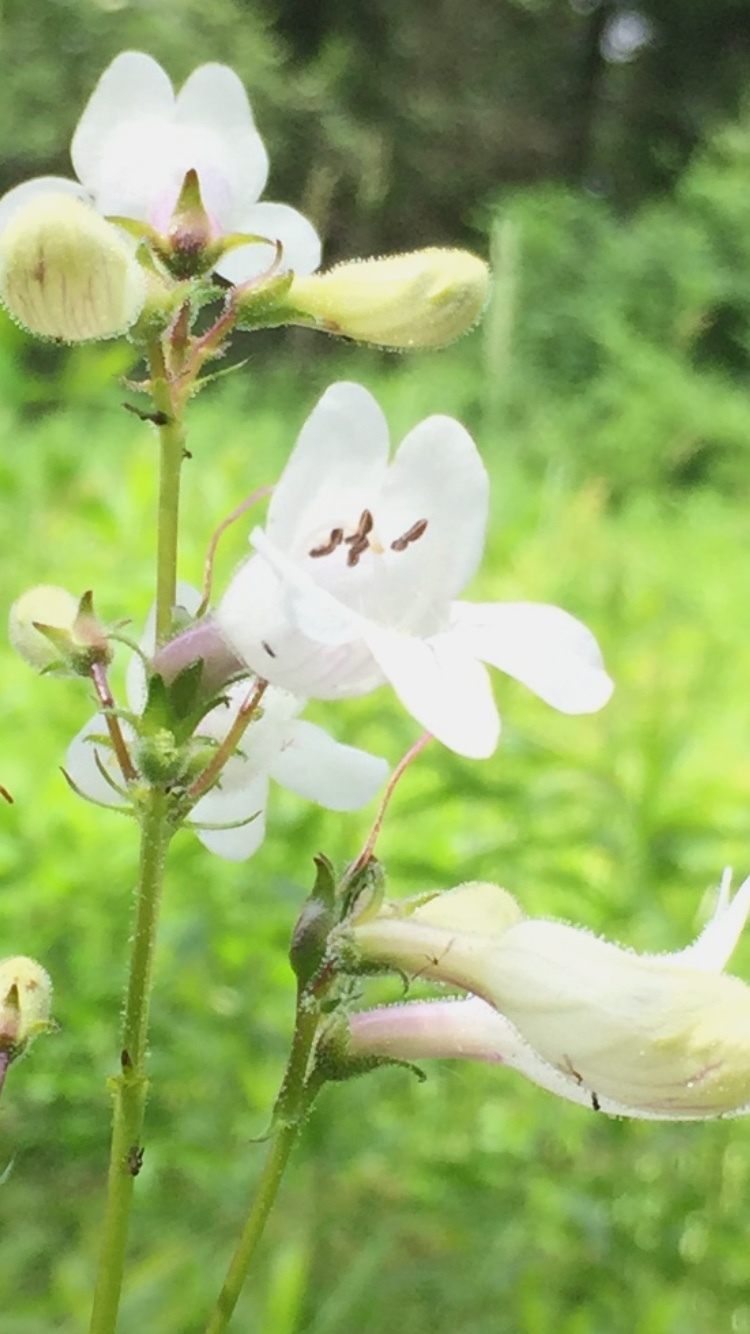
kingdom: Plantae
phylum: Tracheophyta
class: Magnoliopsida
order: Lamiales
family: Plantaginaceae
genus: Penstemon
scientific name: Penstemon digitalis
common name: Foxglove beardtongue
